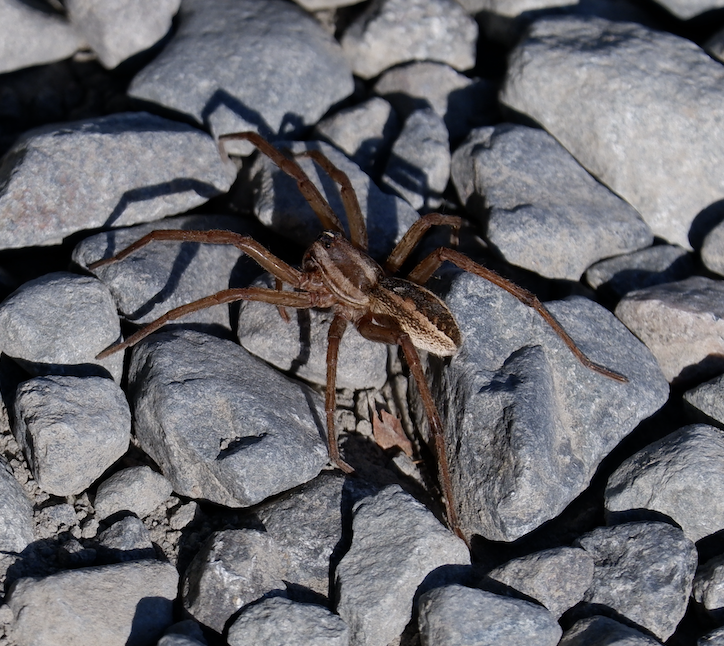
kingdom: Animalia
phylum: Arthropoda
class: Arachnida
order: Araneae
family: Lycosidae
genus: Rabidosa
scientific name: Rabidosa rabida
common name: Rabid wolf spider
